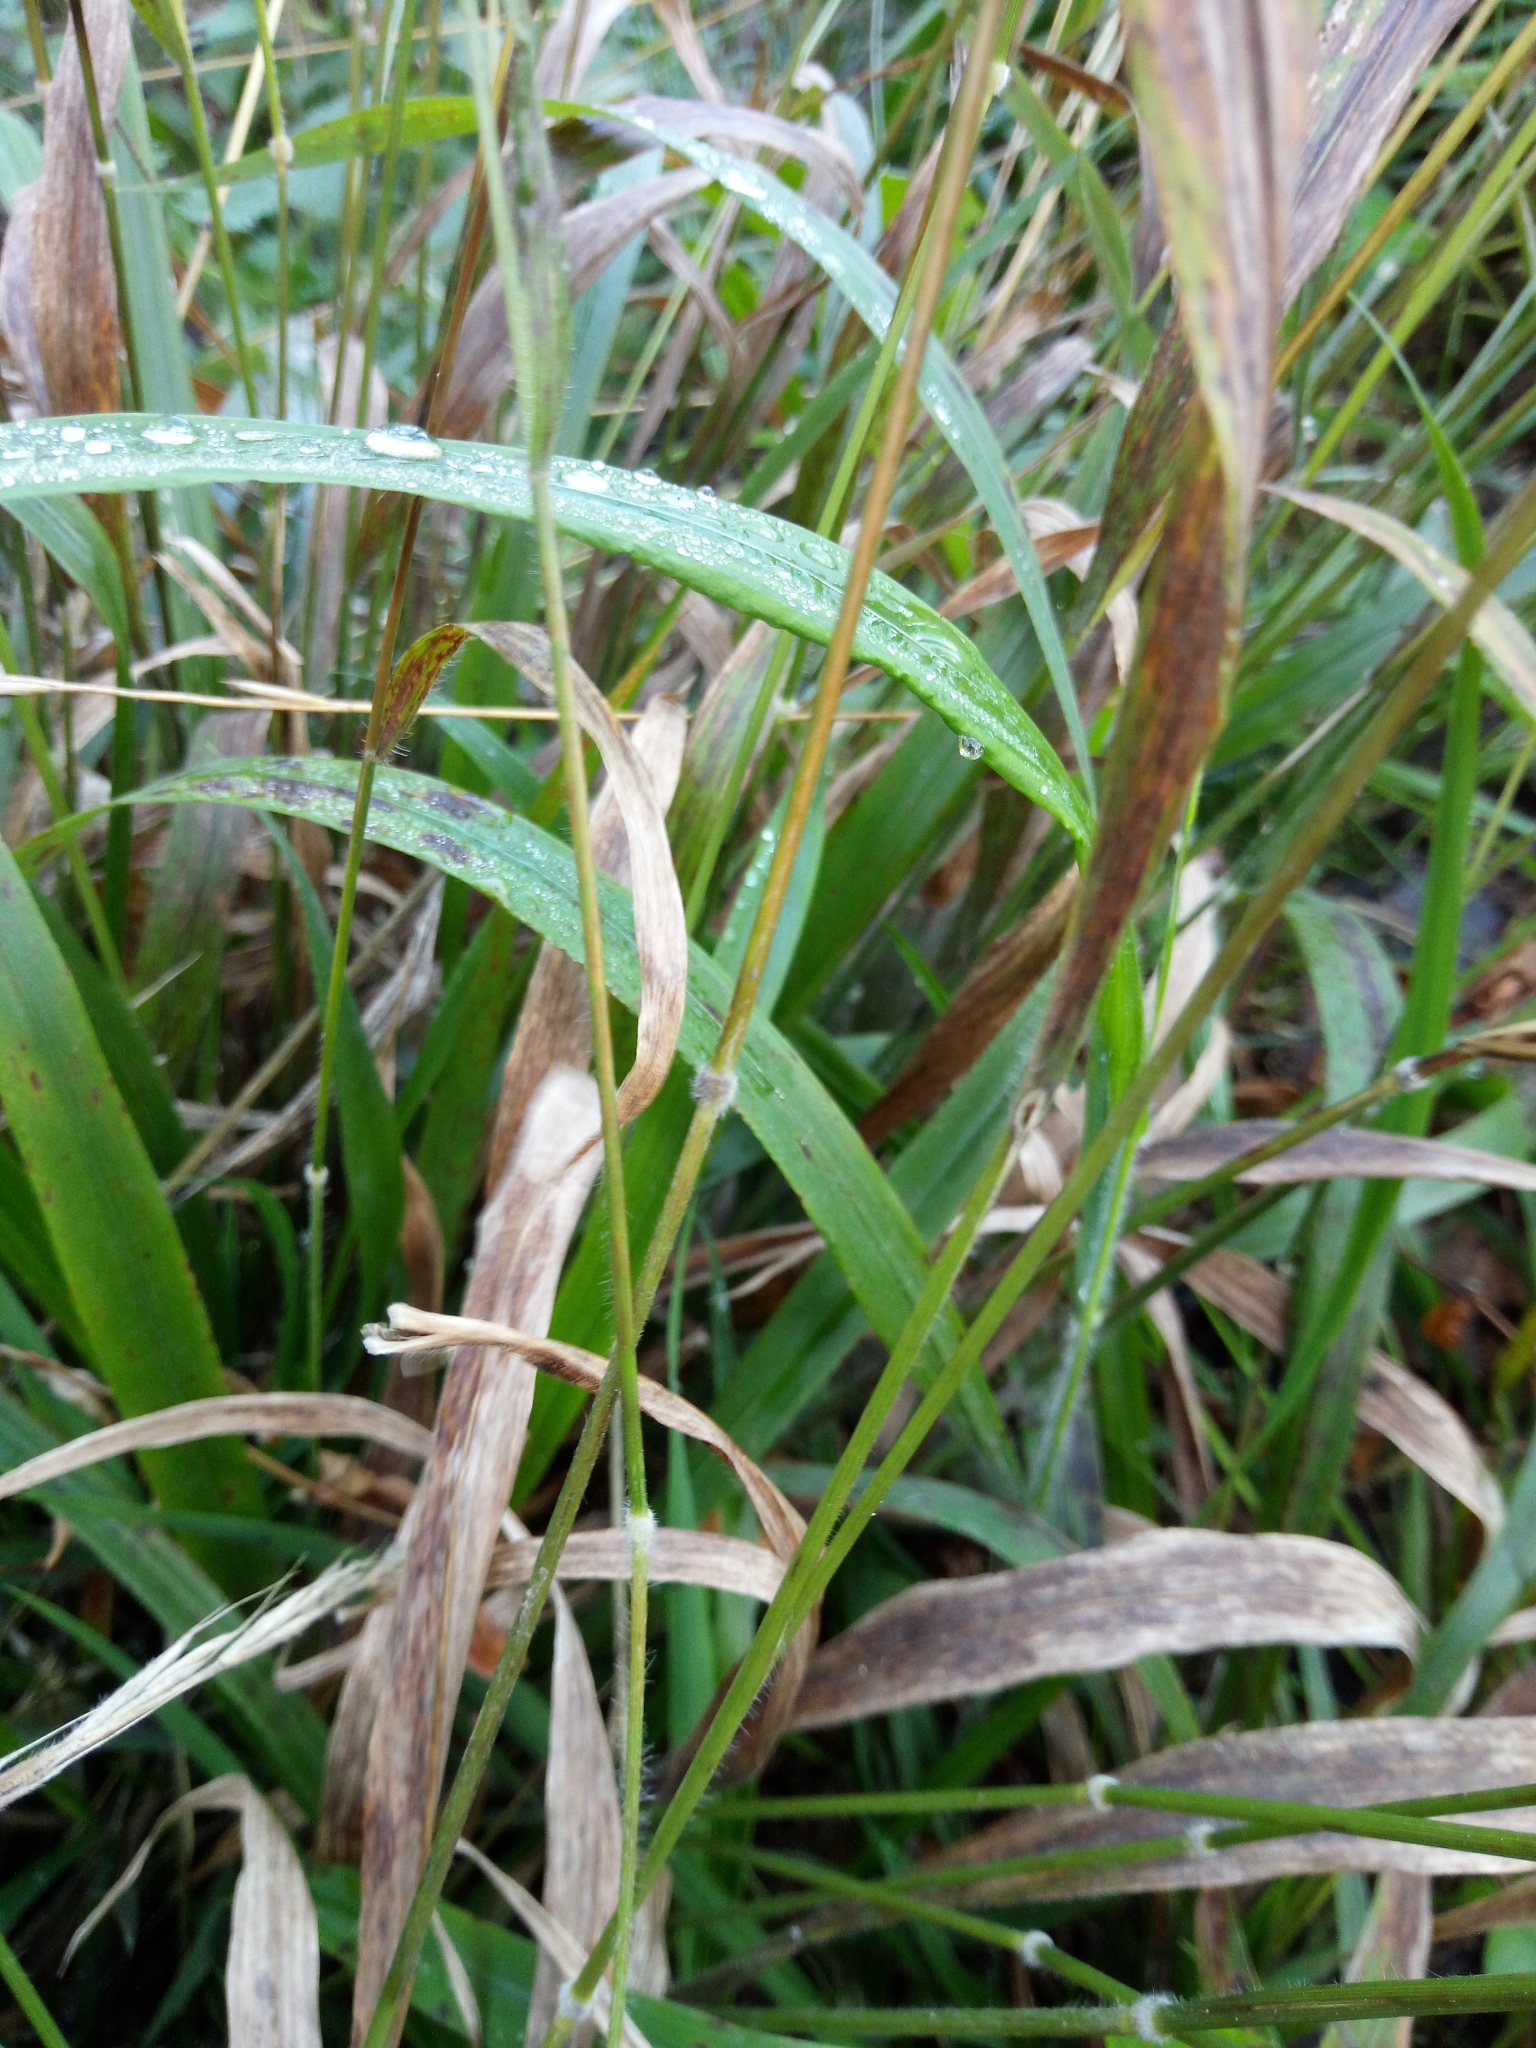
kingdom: Plantae
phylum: Tracheophyta
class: Liliopsida
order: Poales
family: Poaceae
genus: Brachypodium
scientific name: Brachypodium sylvaticum
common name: False-brome
